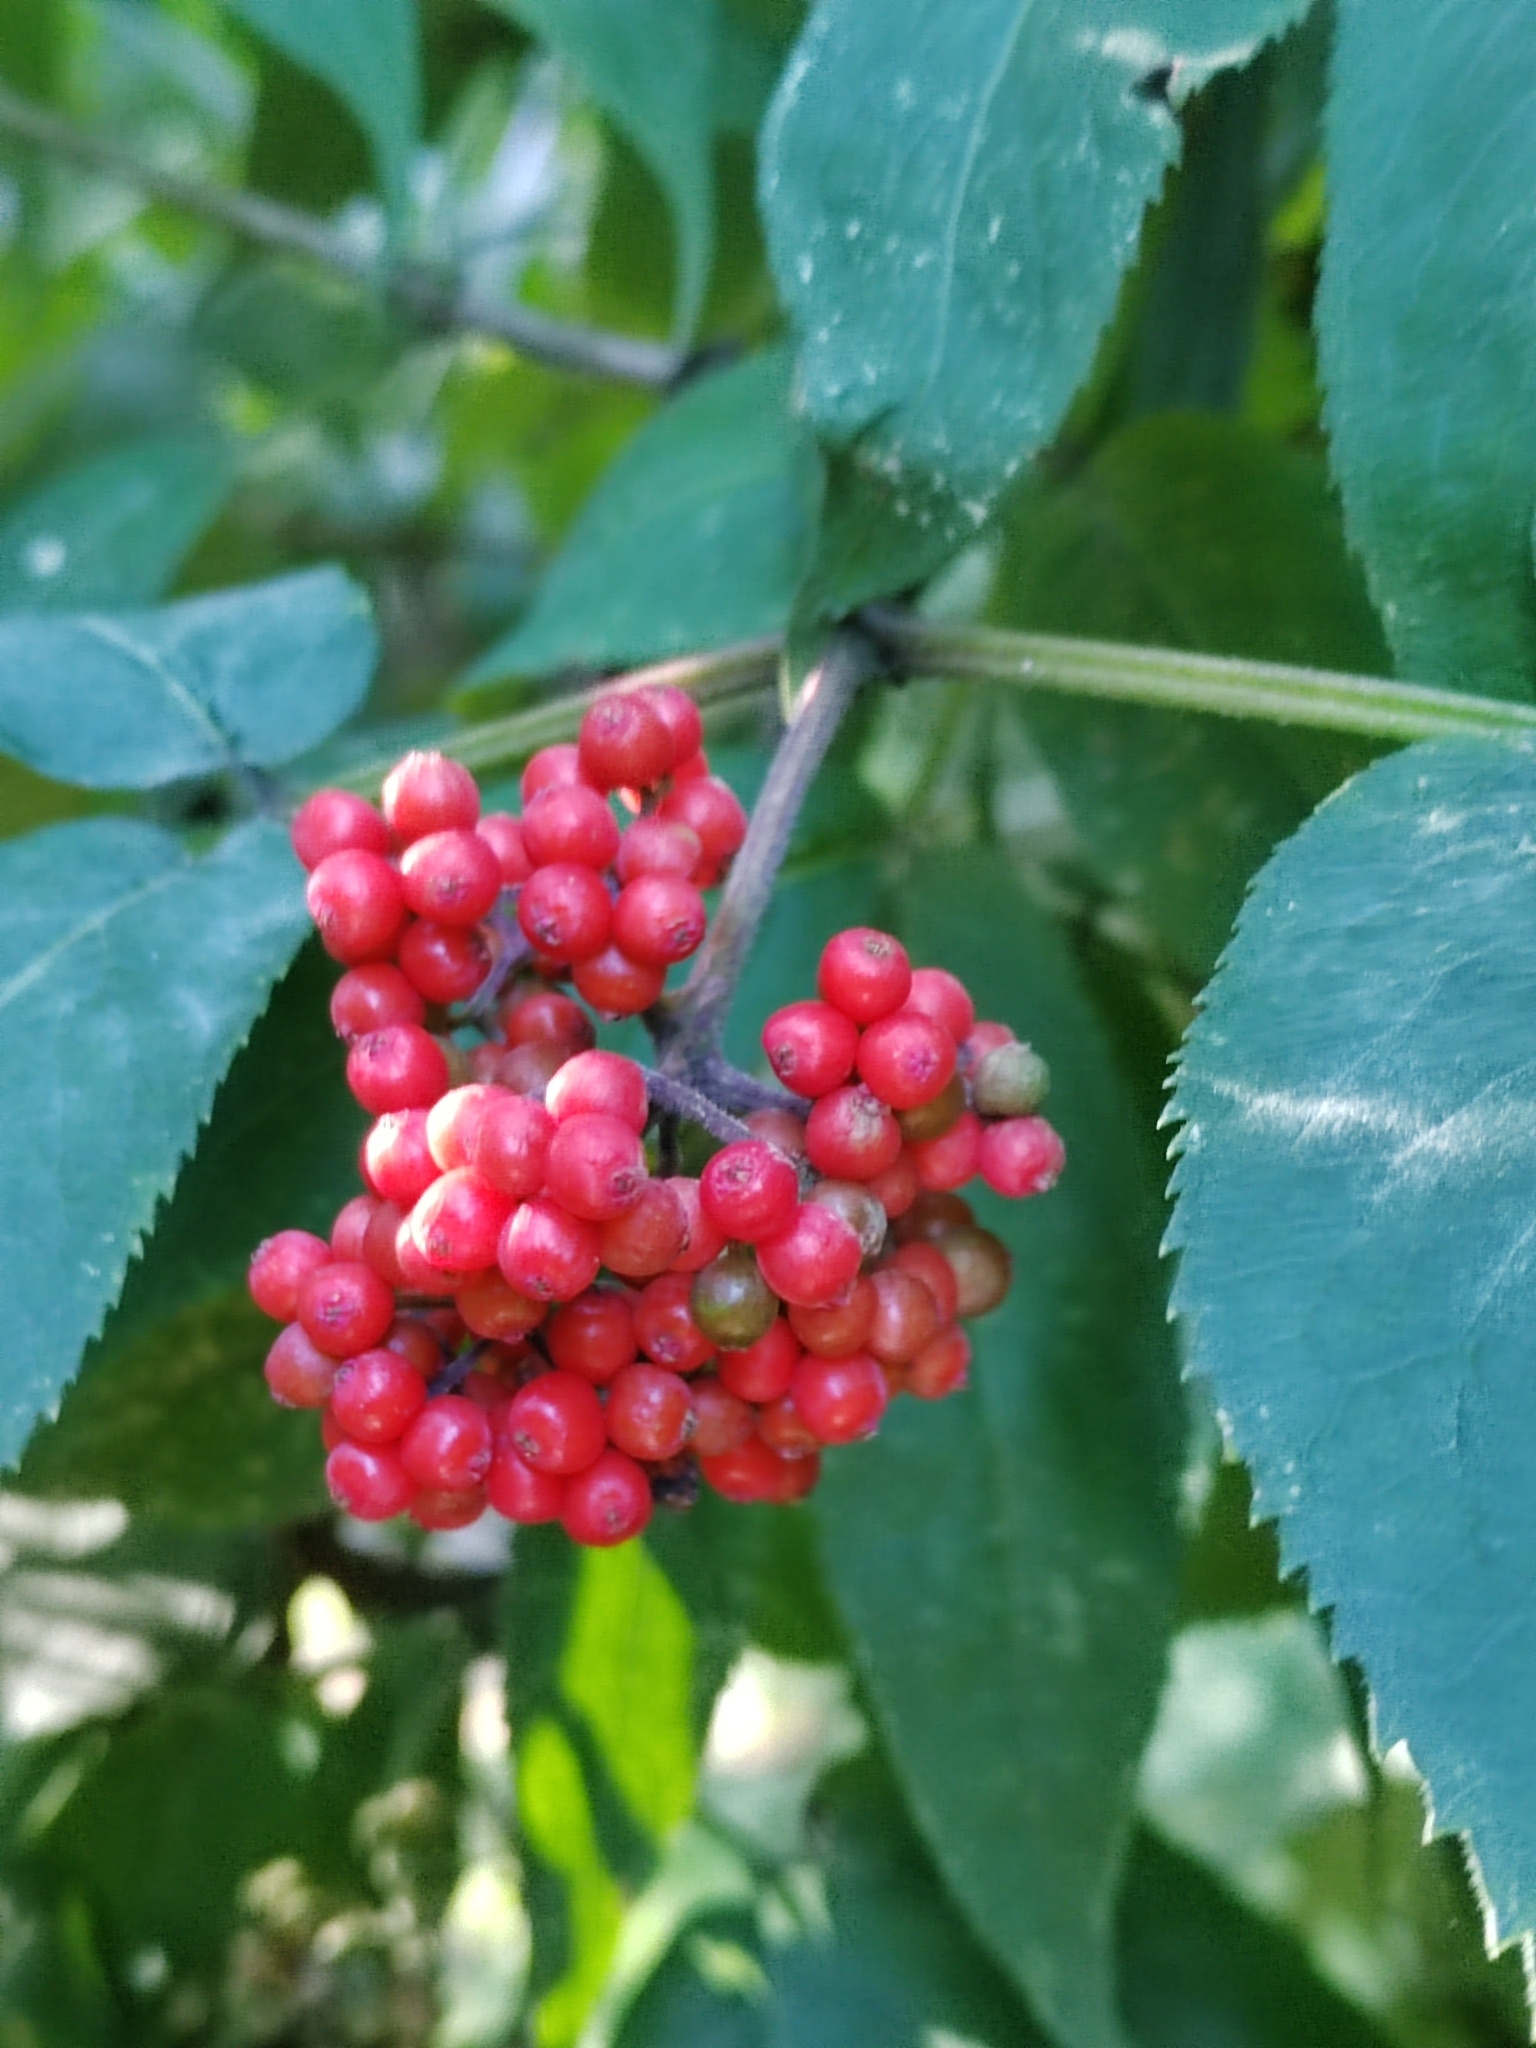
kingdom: Plantae
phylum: Tracheophyta
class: Magnoliopsida
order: Dipsacales
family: Viburnaceae
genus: Sambucus
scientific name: Sambucus sibirica
